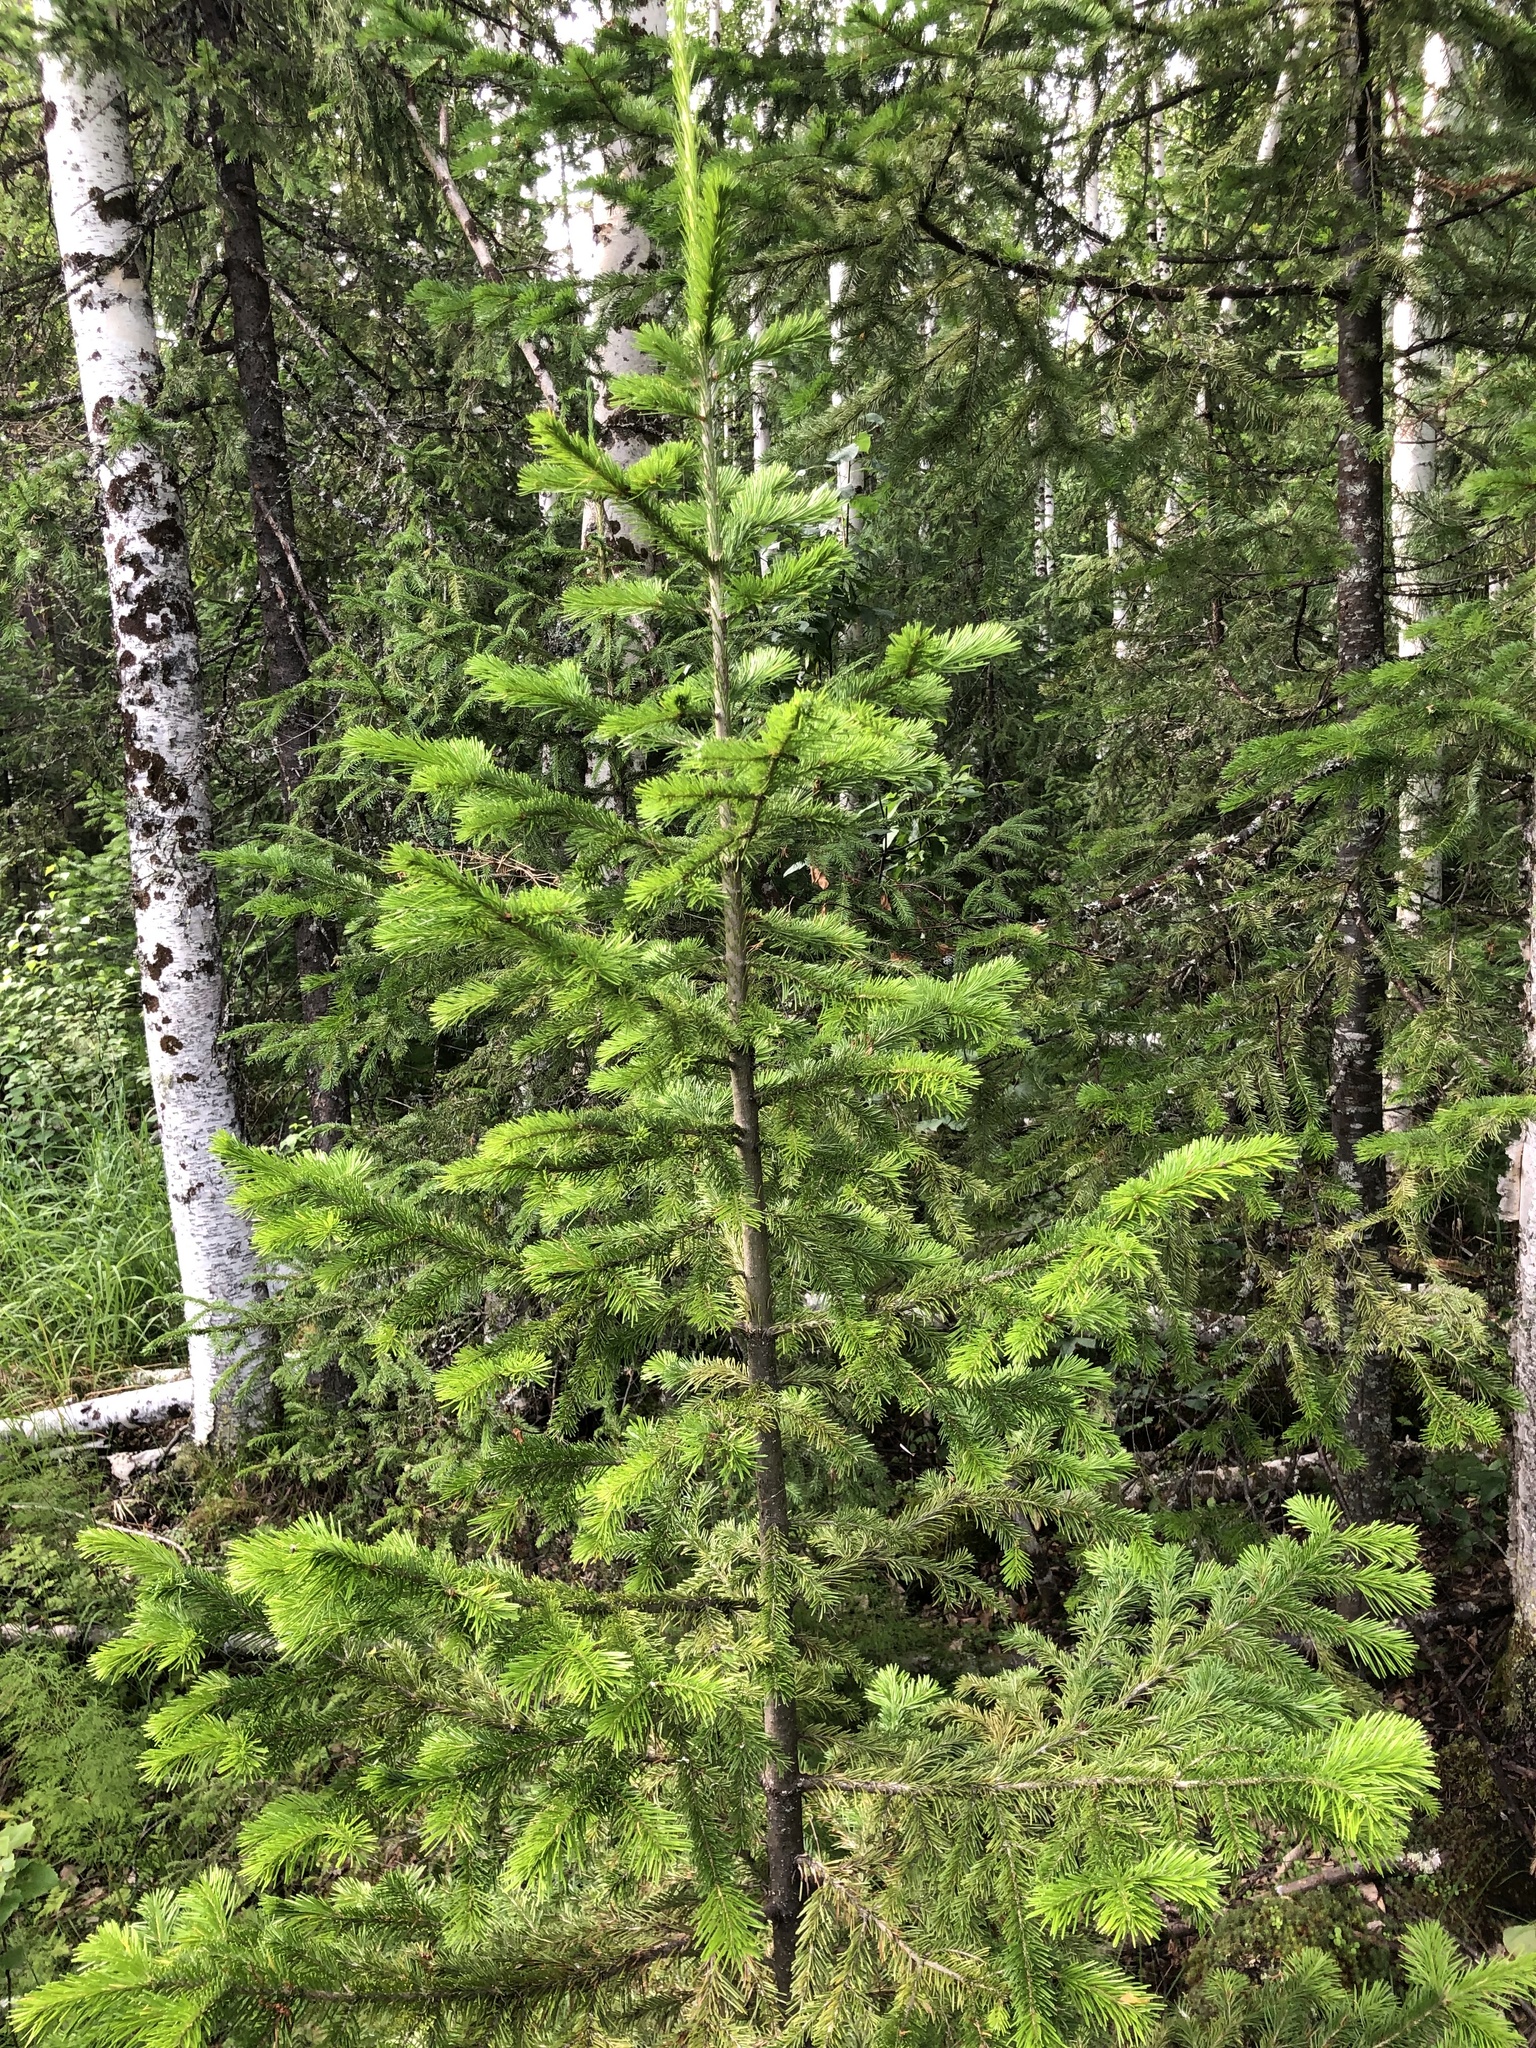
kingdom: Plantae
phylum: Tracheophyta
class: Pinopsida
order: Pinales
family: Pinaceae
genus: Abies
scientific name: Abies sibirica
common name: Siberian fir
